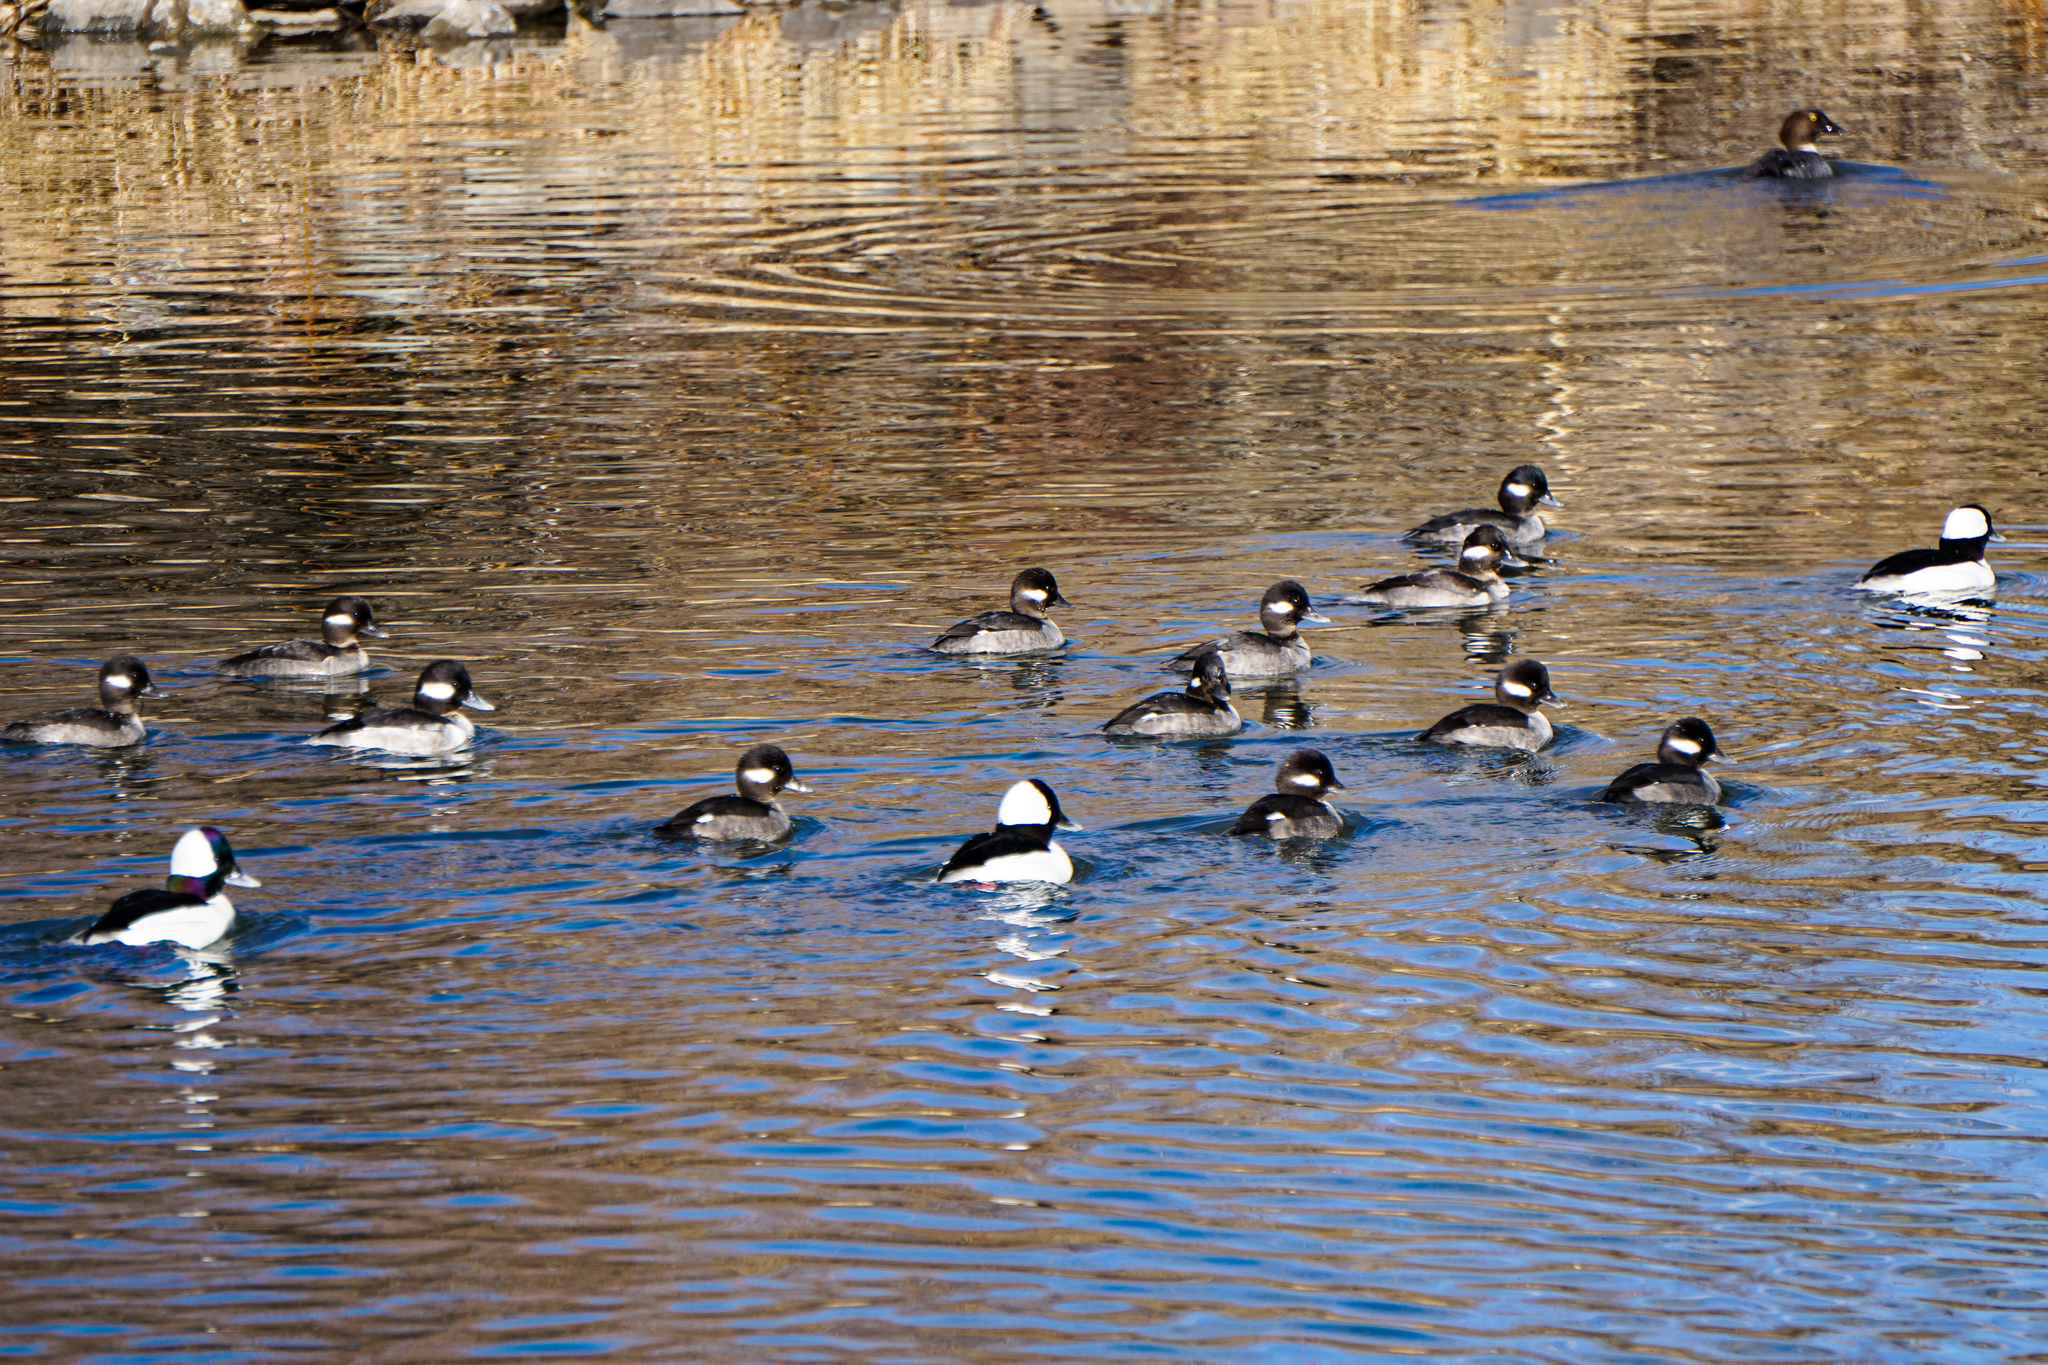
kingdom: Animalia
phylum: Chordata
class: Aves
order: Anseriformes
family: Anatidae
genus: Bucephala
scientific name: Bucephala albeola
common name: Bufflehead
